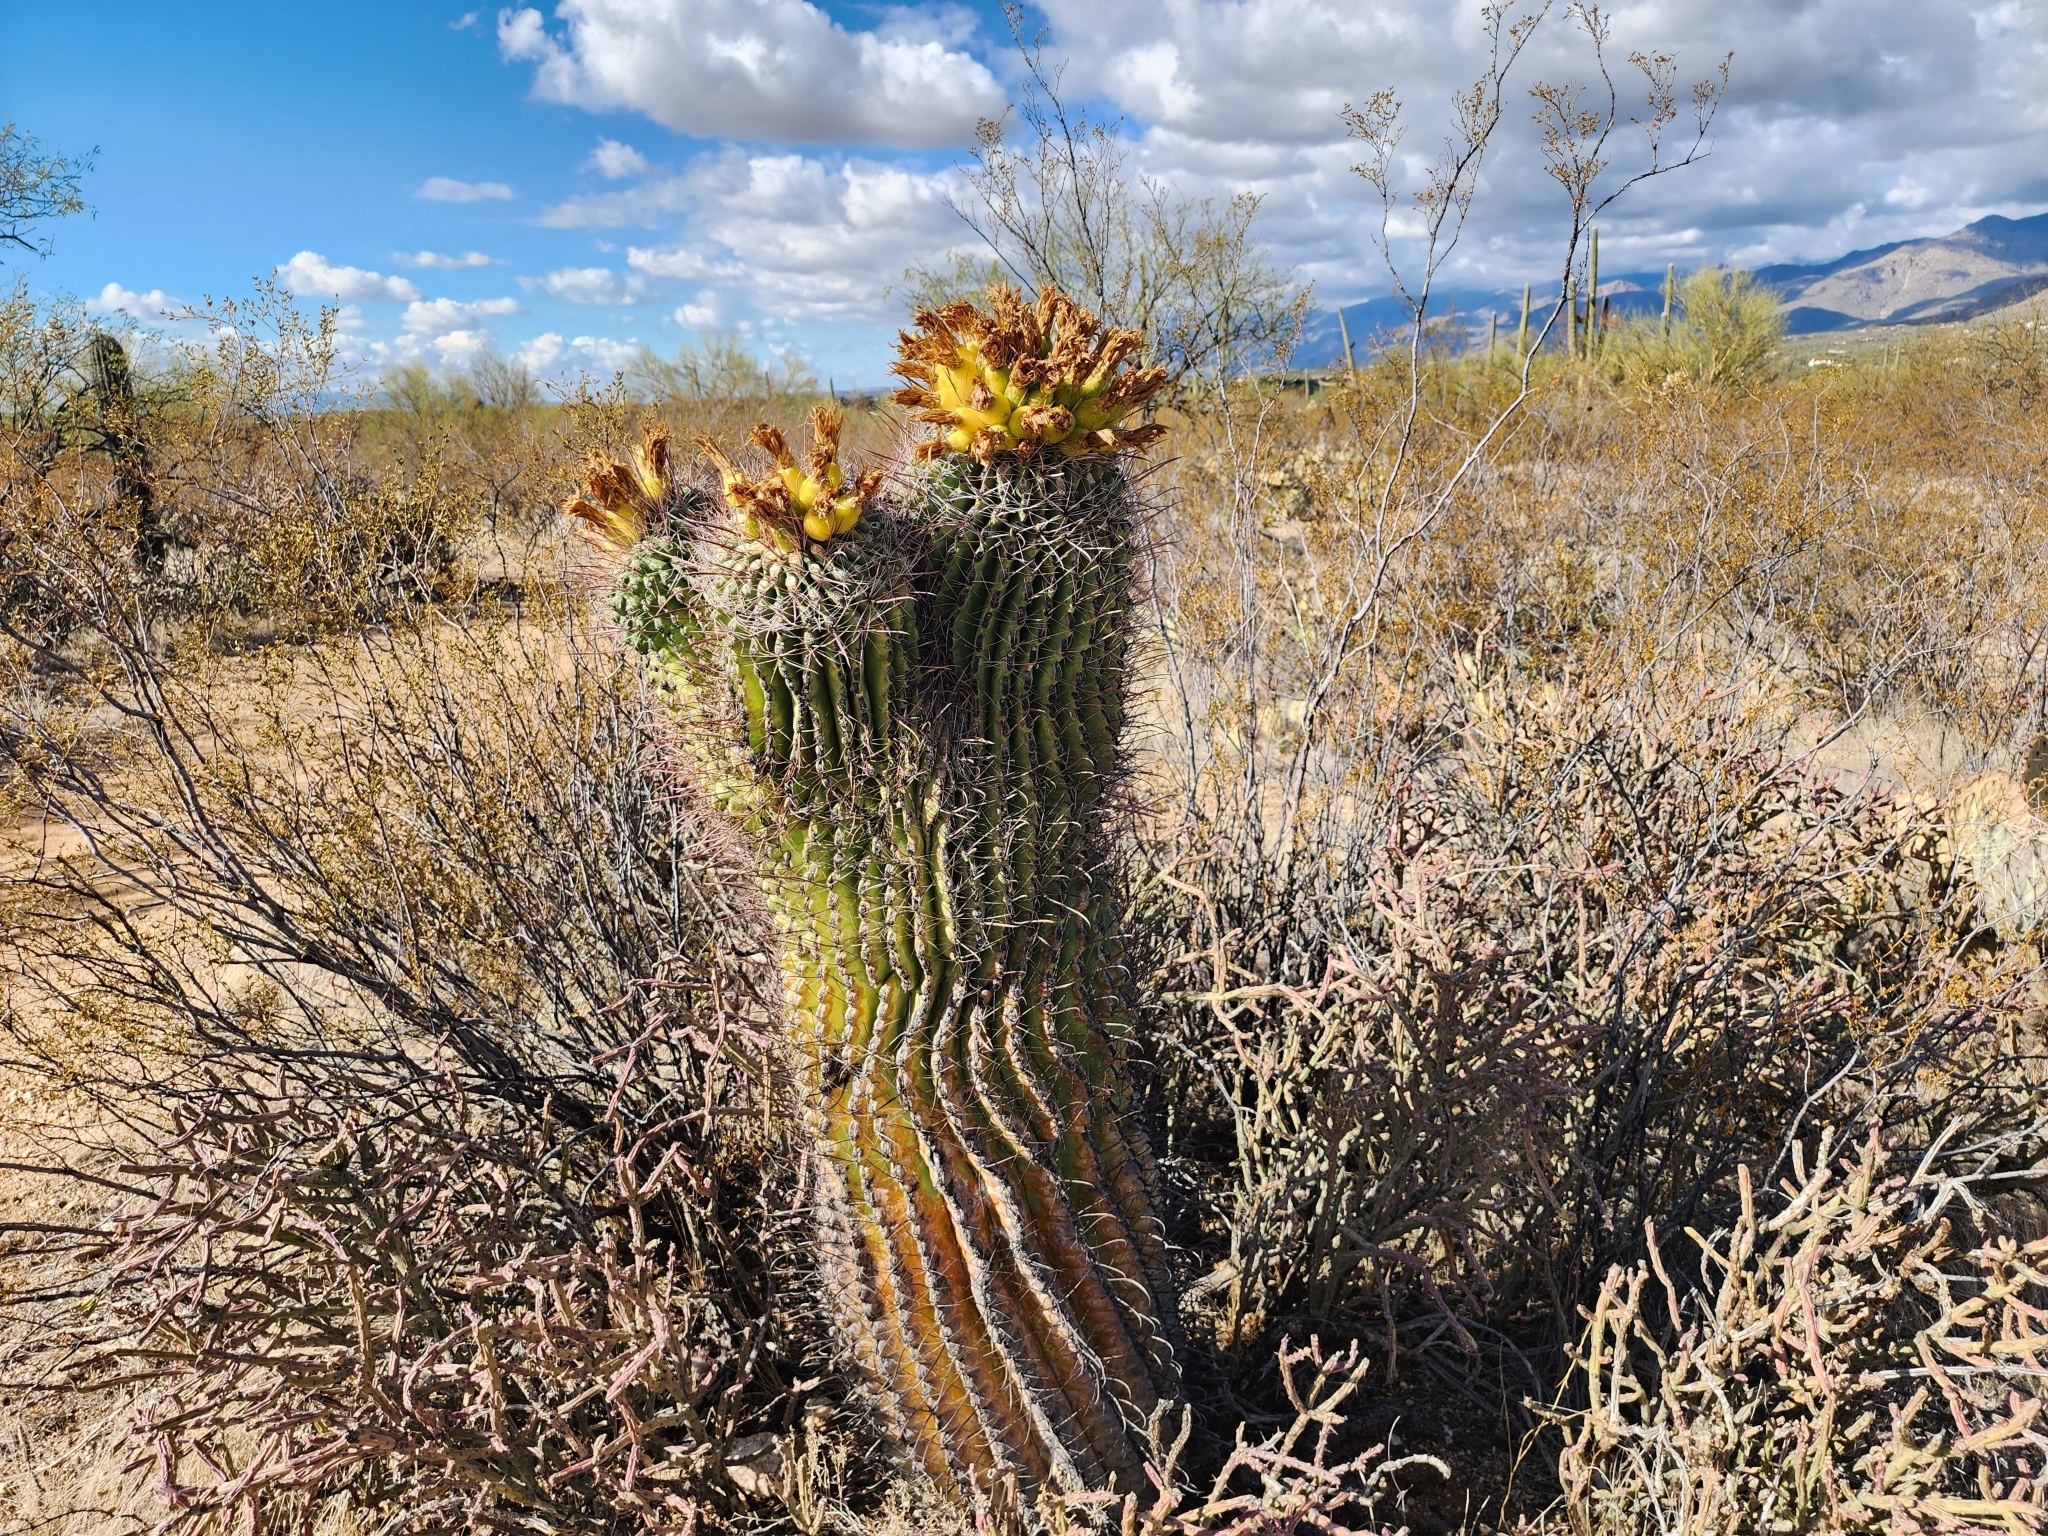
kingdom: Plantae
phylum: Tracheophyta
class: Magnoliopsida
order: Caryophyllales
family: Cactaceae
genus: Ferocactus
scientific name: Ferocactus wislizeni
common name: Candy barrel cactus
